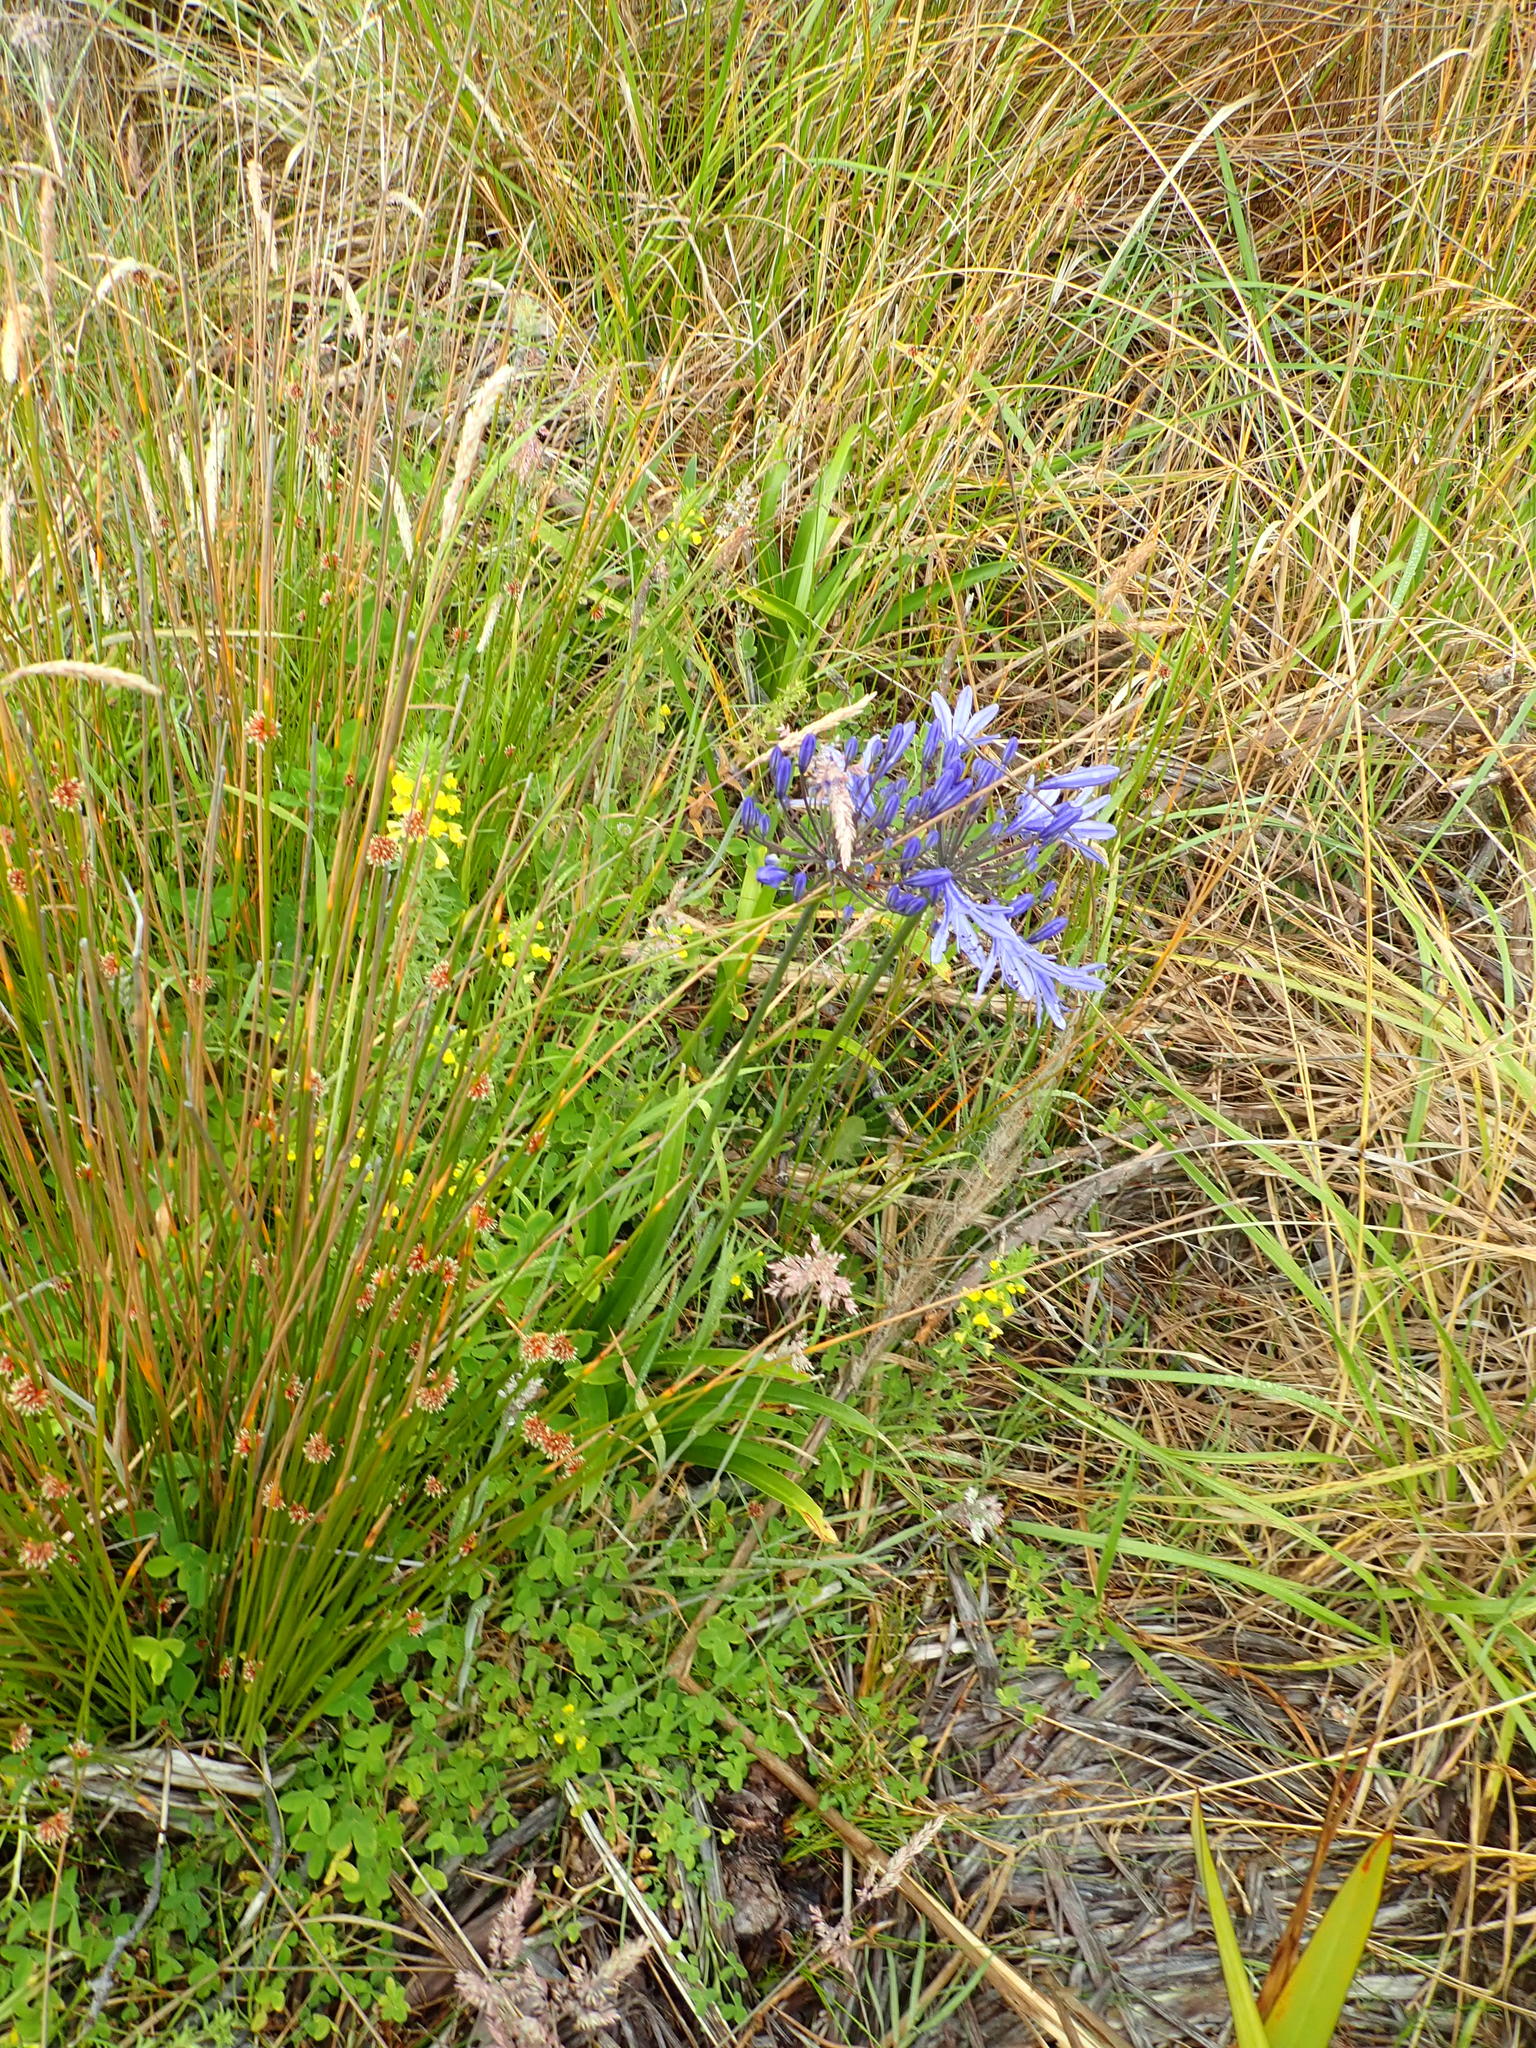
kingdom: Plantae
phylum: Tracheophyta
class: Liliopsida
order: Asparagales
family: Amaryllidaceae
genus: Agapanthus
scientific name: Agapanthus praecox
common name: African-lily
